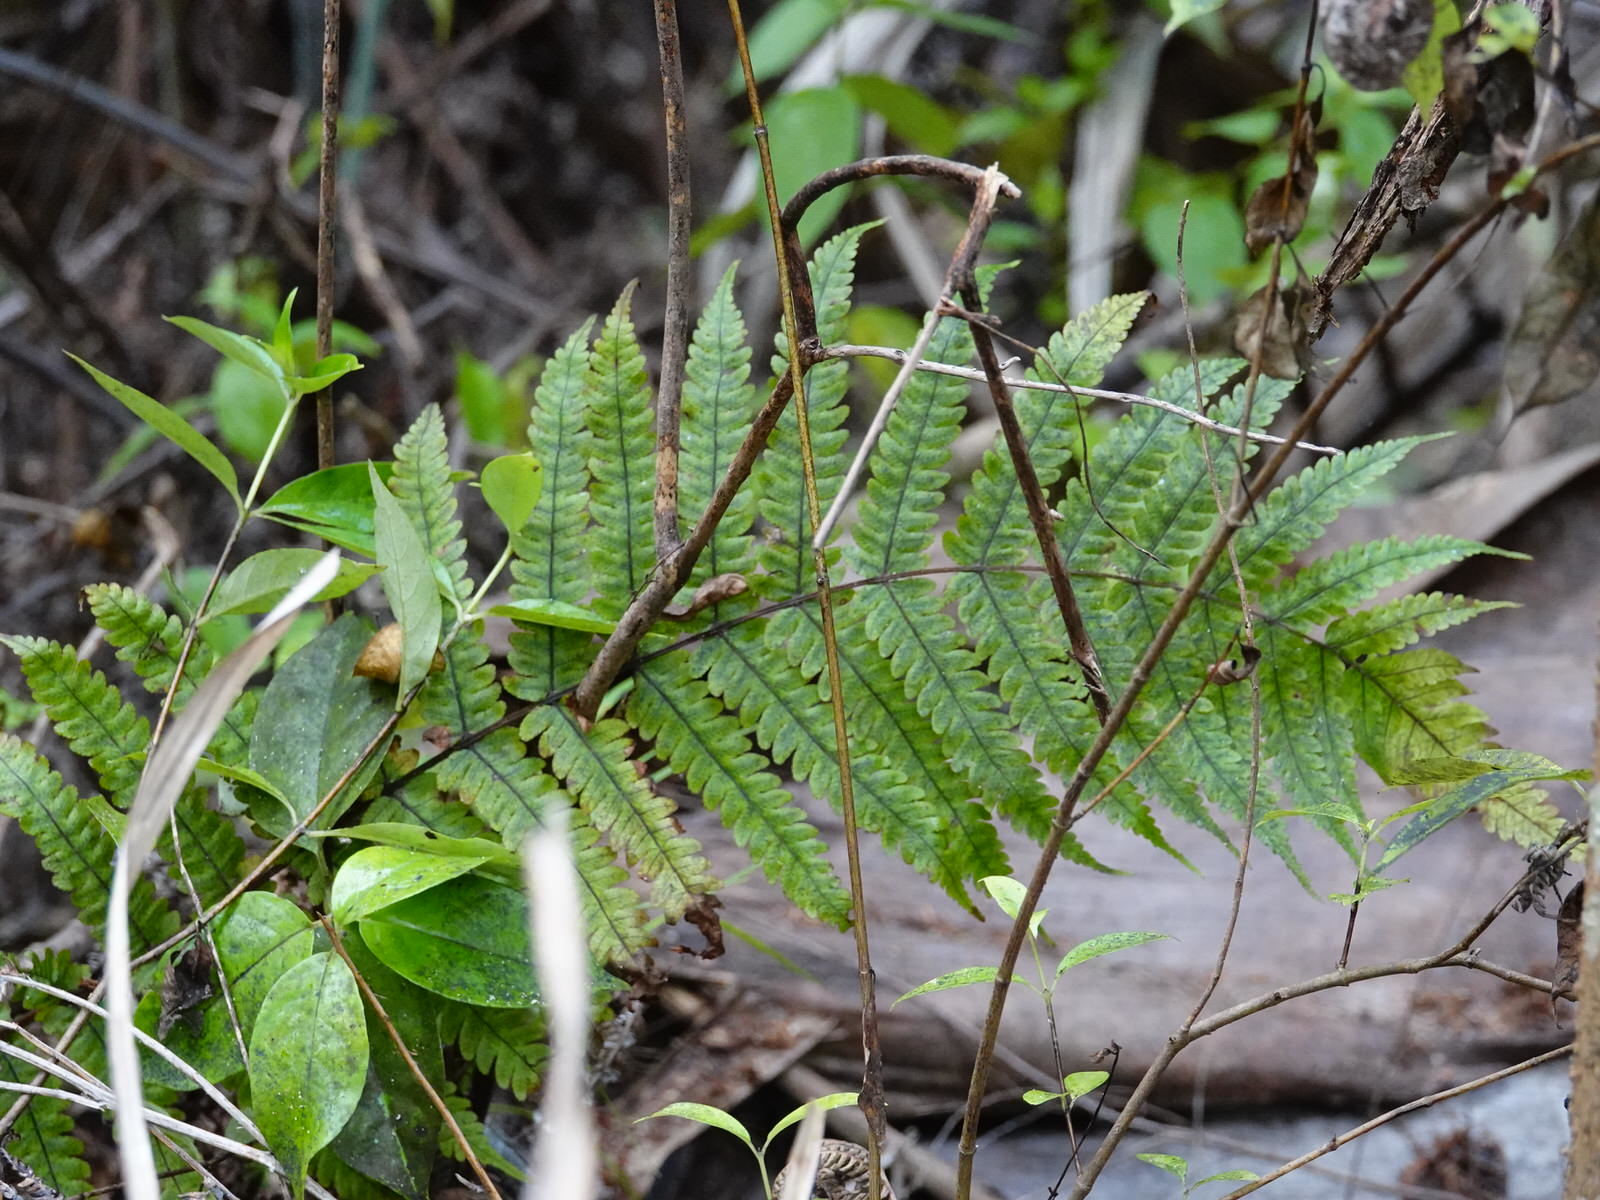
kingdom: Plantae
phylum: Tracheophyta
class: Polypodiopsida
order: Polypodiales
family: Thelypteridaceae
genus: Pakau
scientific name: Pakau pennigera
